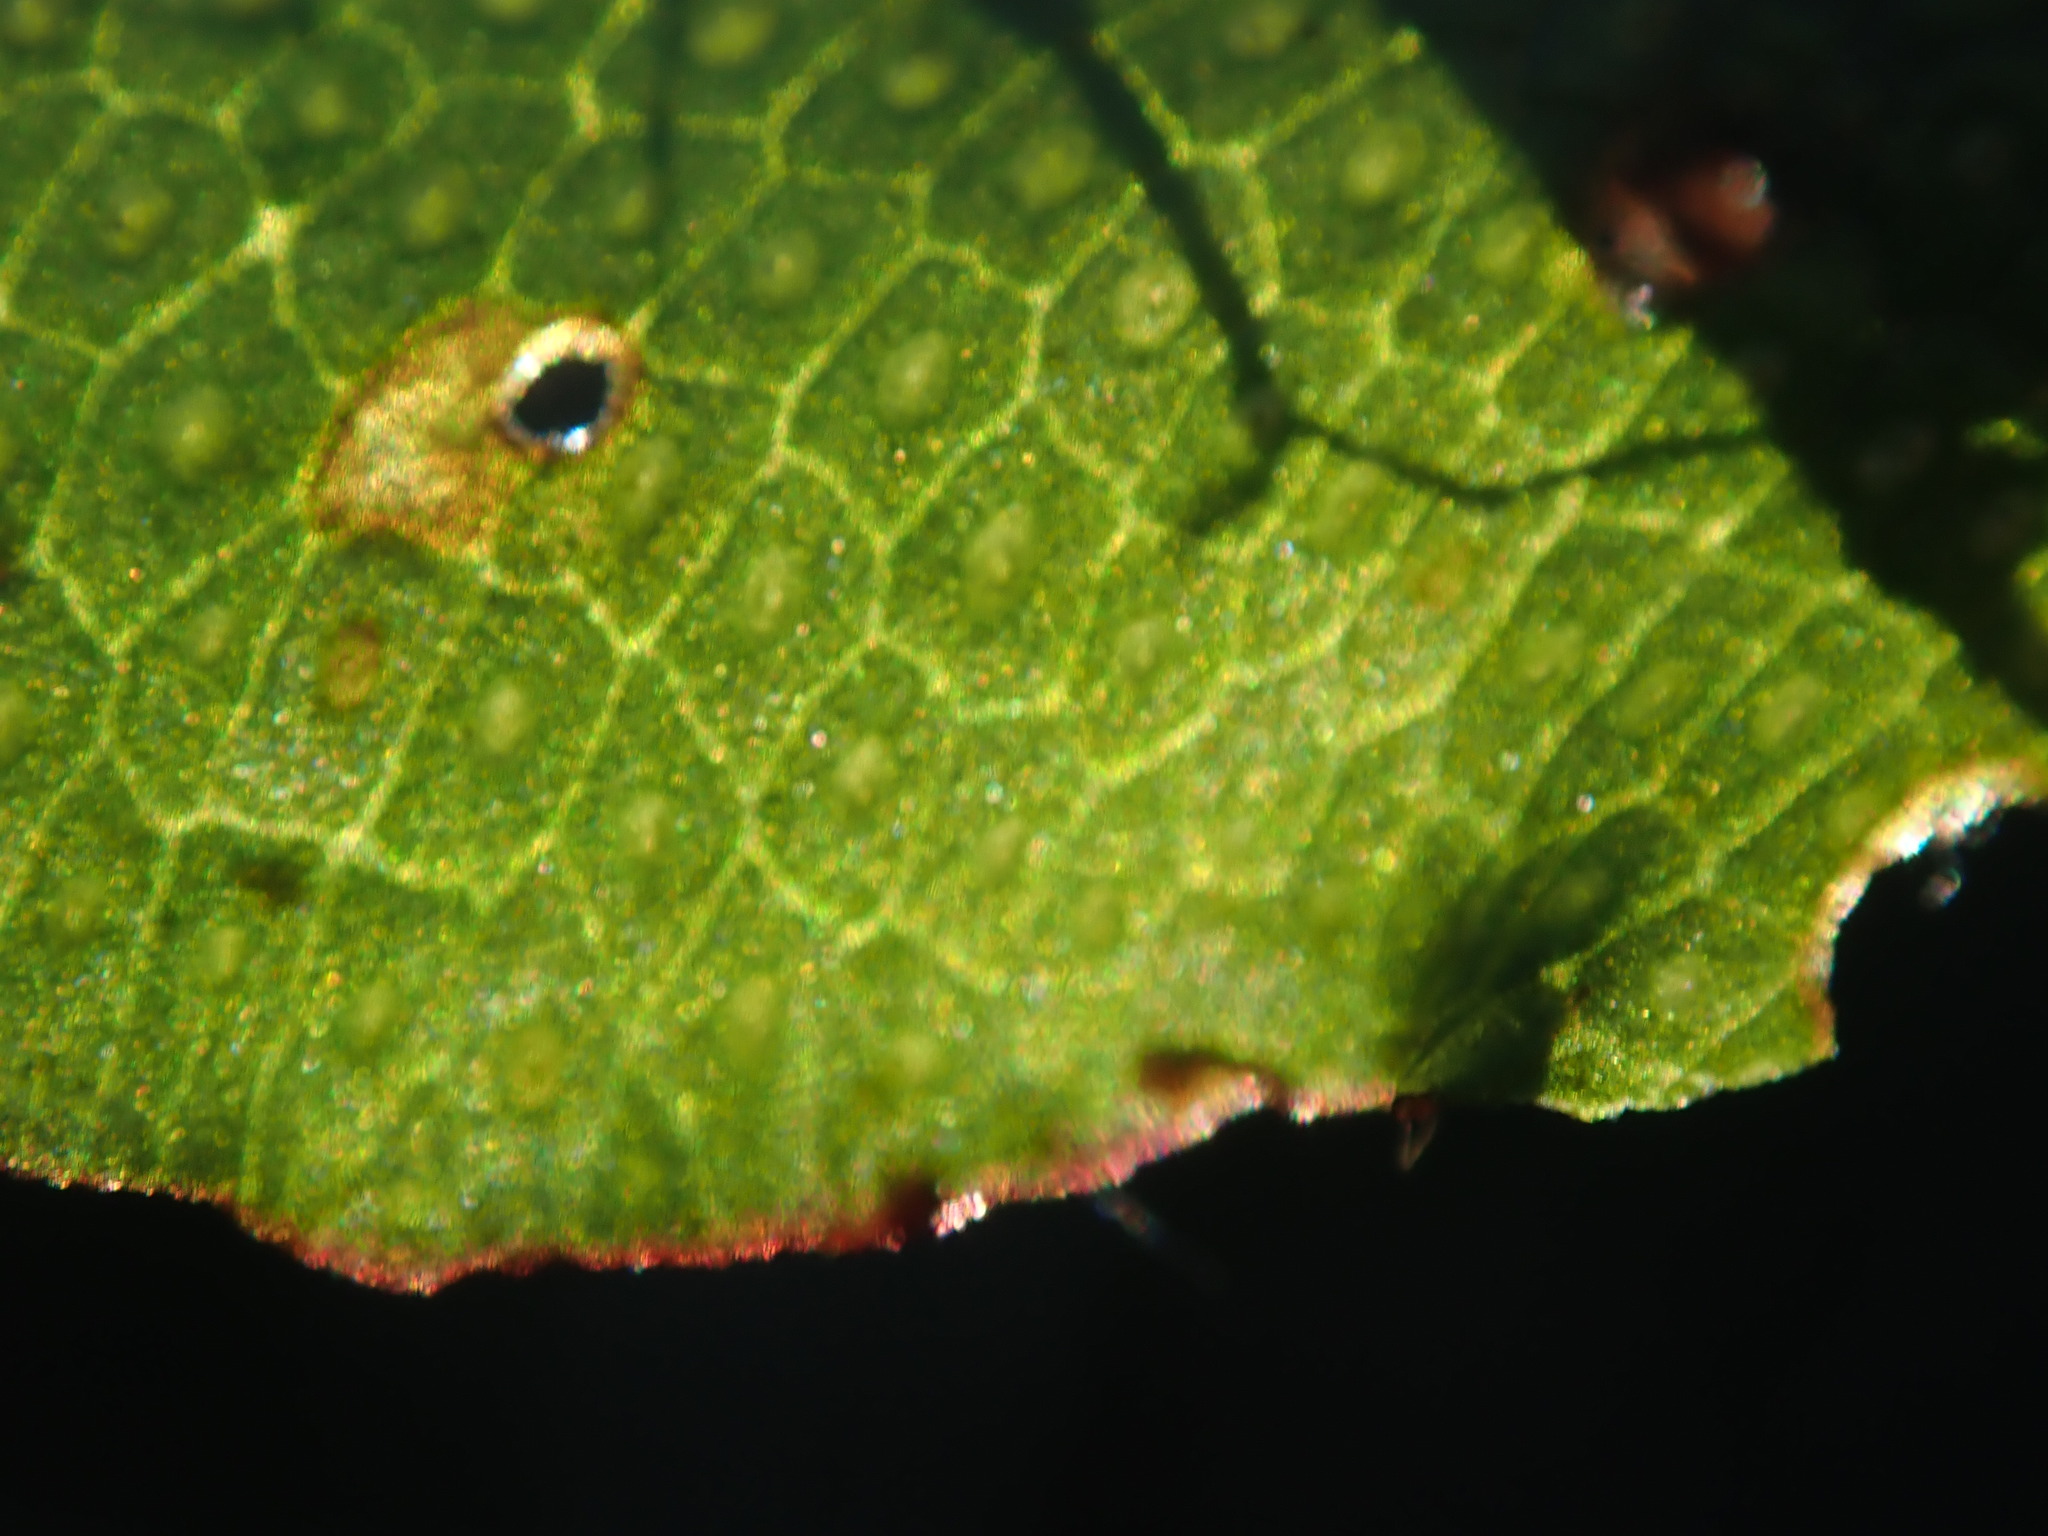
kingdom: Plantae
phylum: Marchantiophyta
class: Marchantiopsida
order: Marchantiales
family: Conocephalaceae
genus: Conocephalum
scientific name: Conocephalum salebrosum
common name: Cat-tongue liverwort
